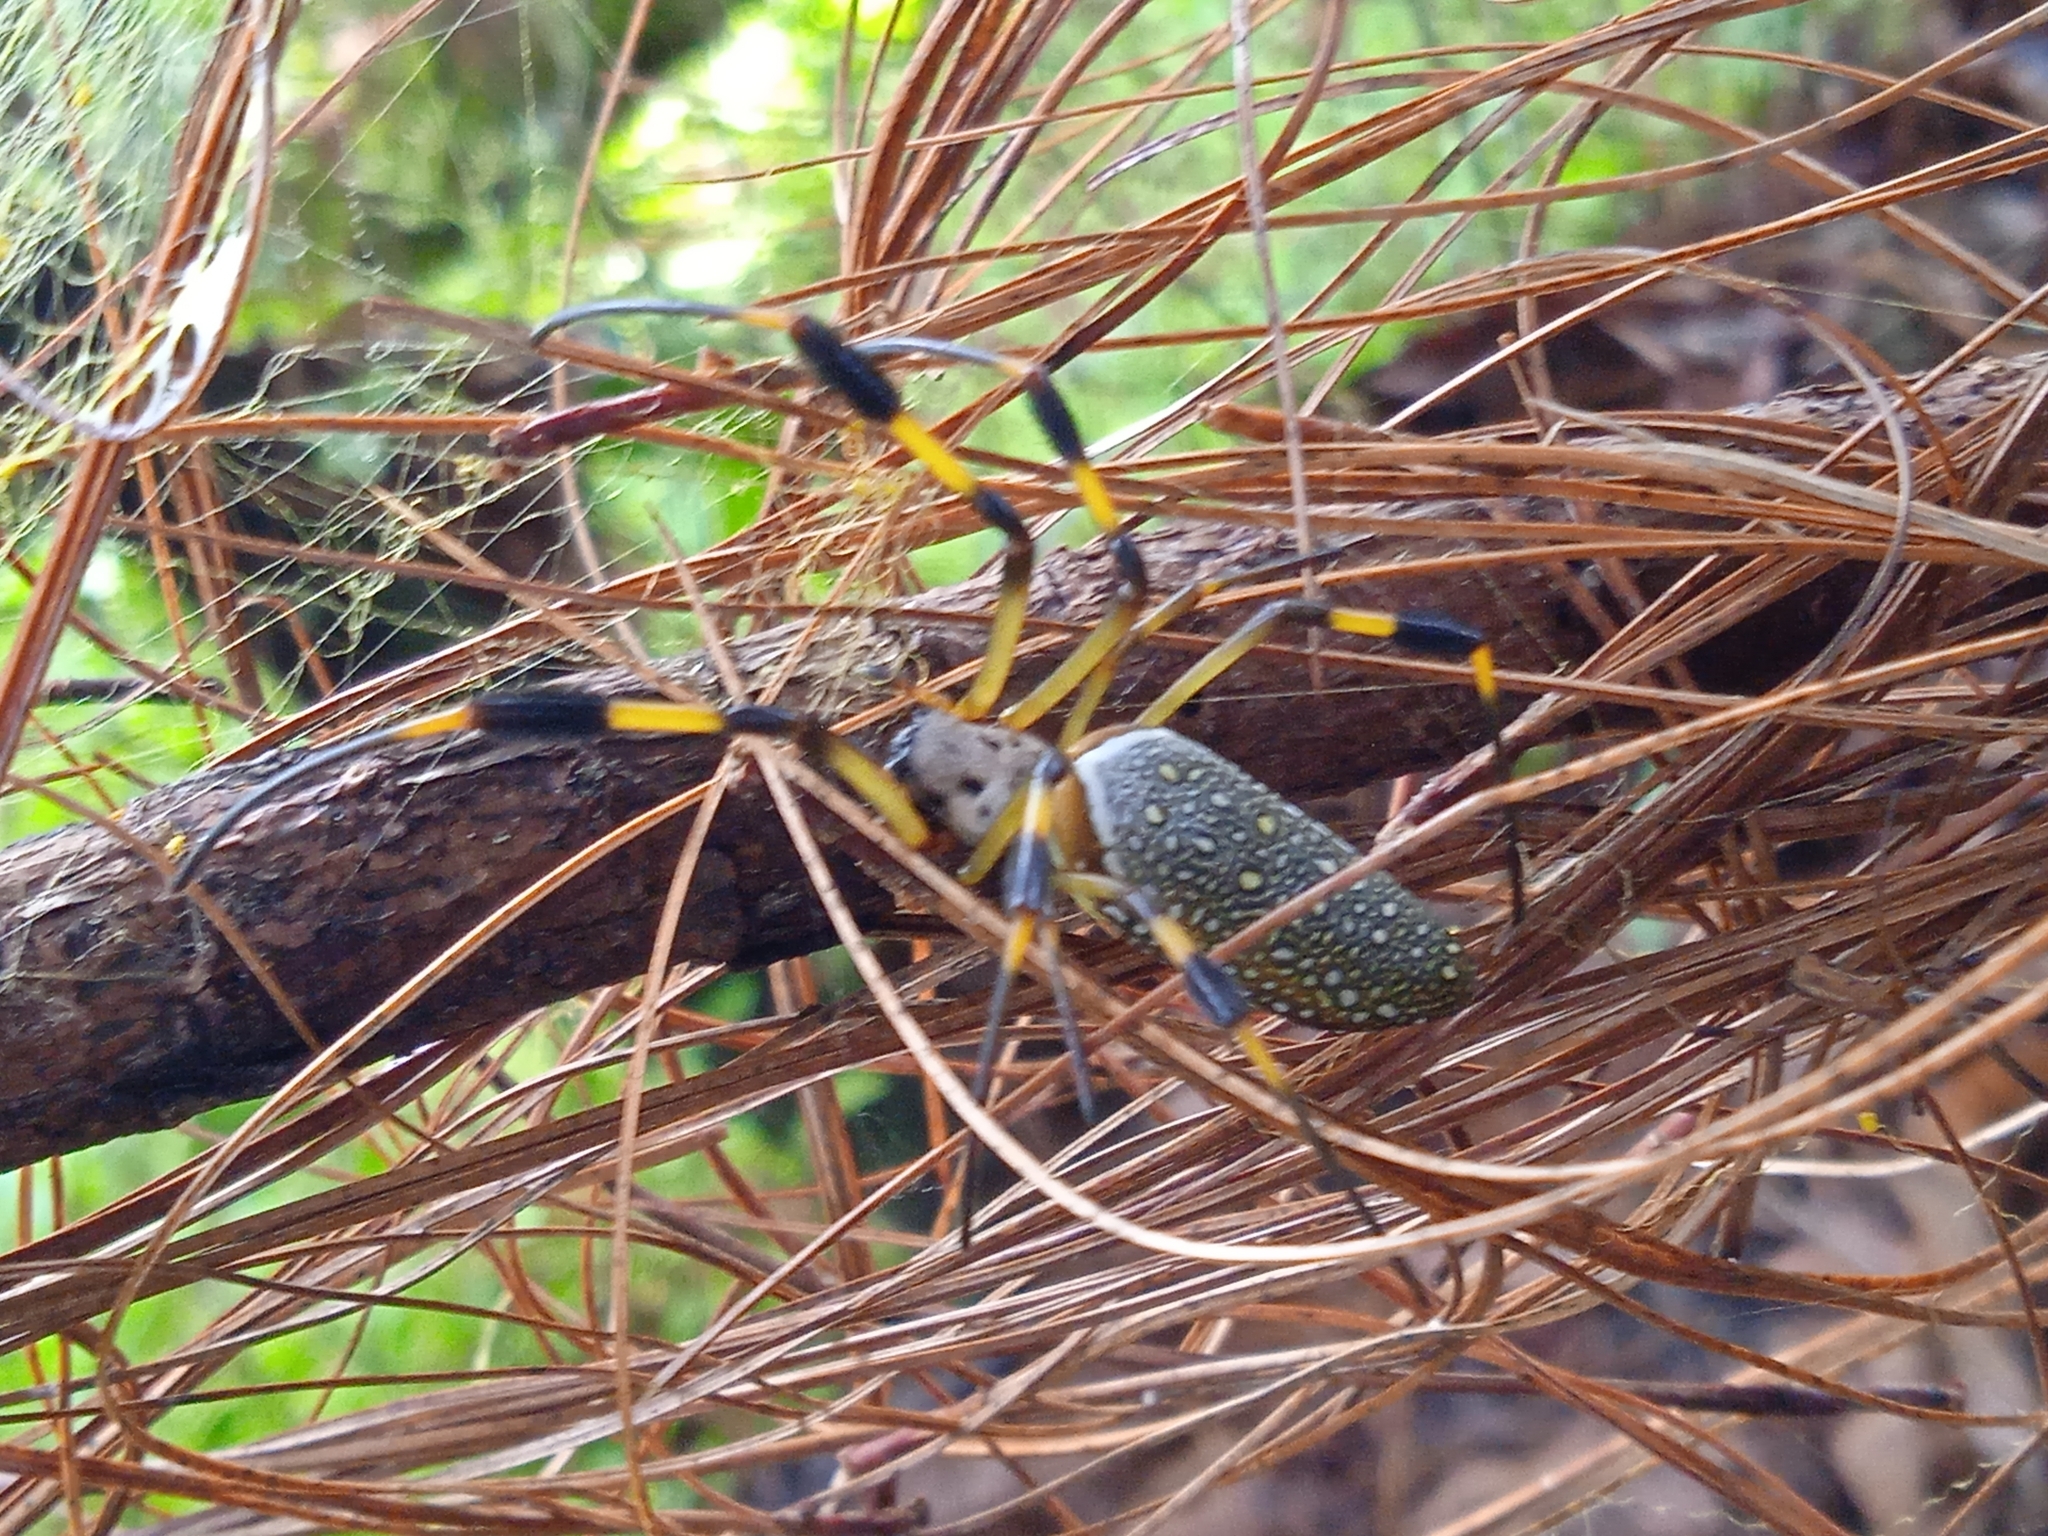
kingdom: Animalia
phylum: Arthropoda
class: Arachnida
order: Araneae
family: Araneidae
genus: Trichonephila
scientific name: Trichonephila clavipes
